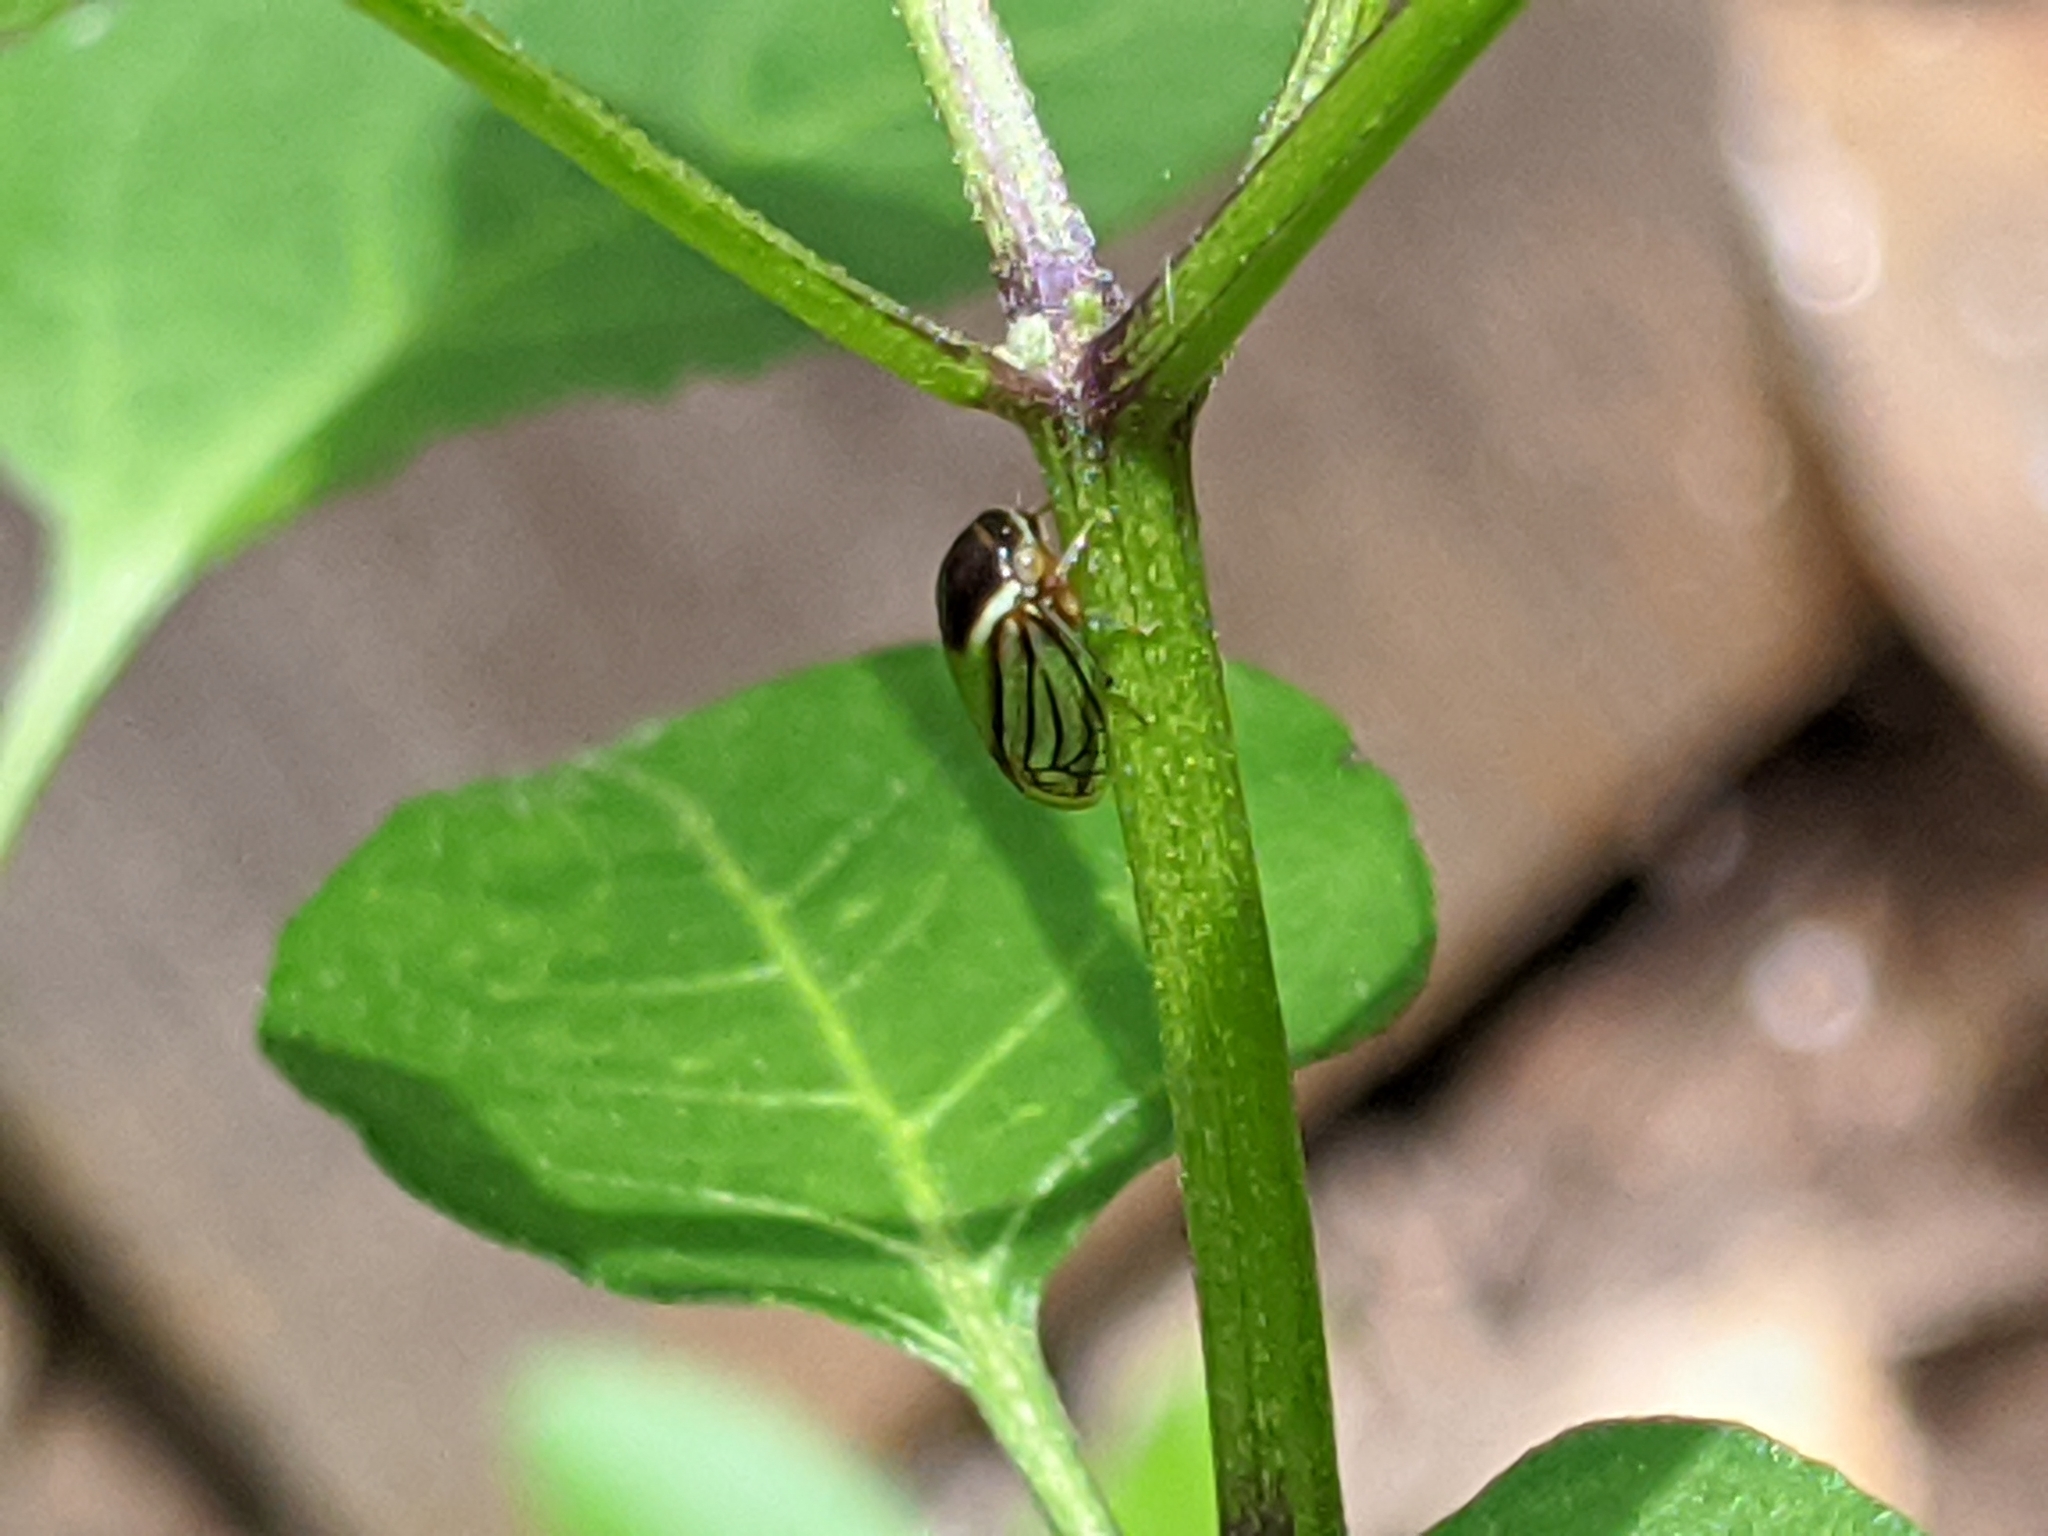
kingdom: Animalia
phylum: Arthropoda
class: Insecta
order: Hemiptera
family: Membracidae
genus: Acutalis
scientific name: Acutalis tartarea
